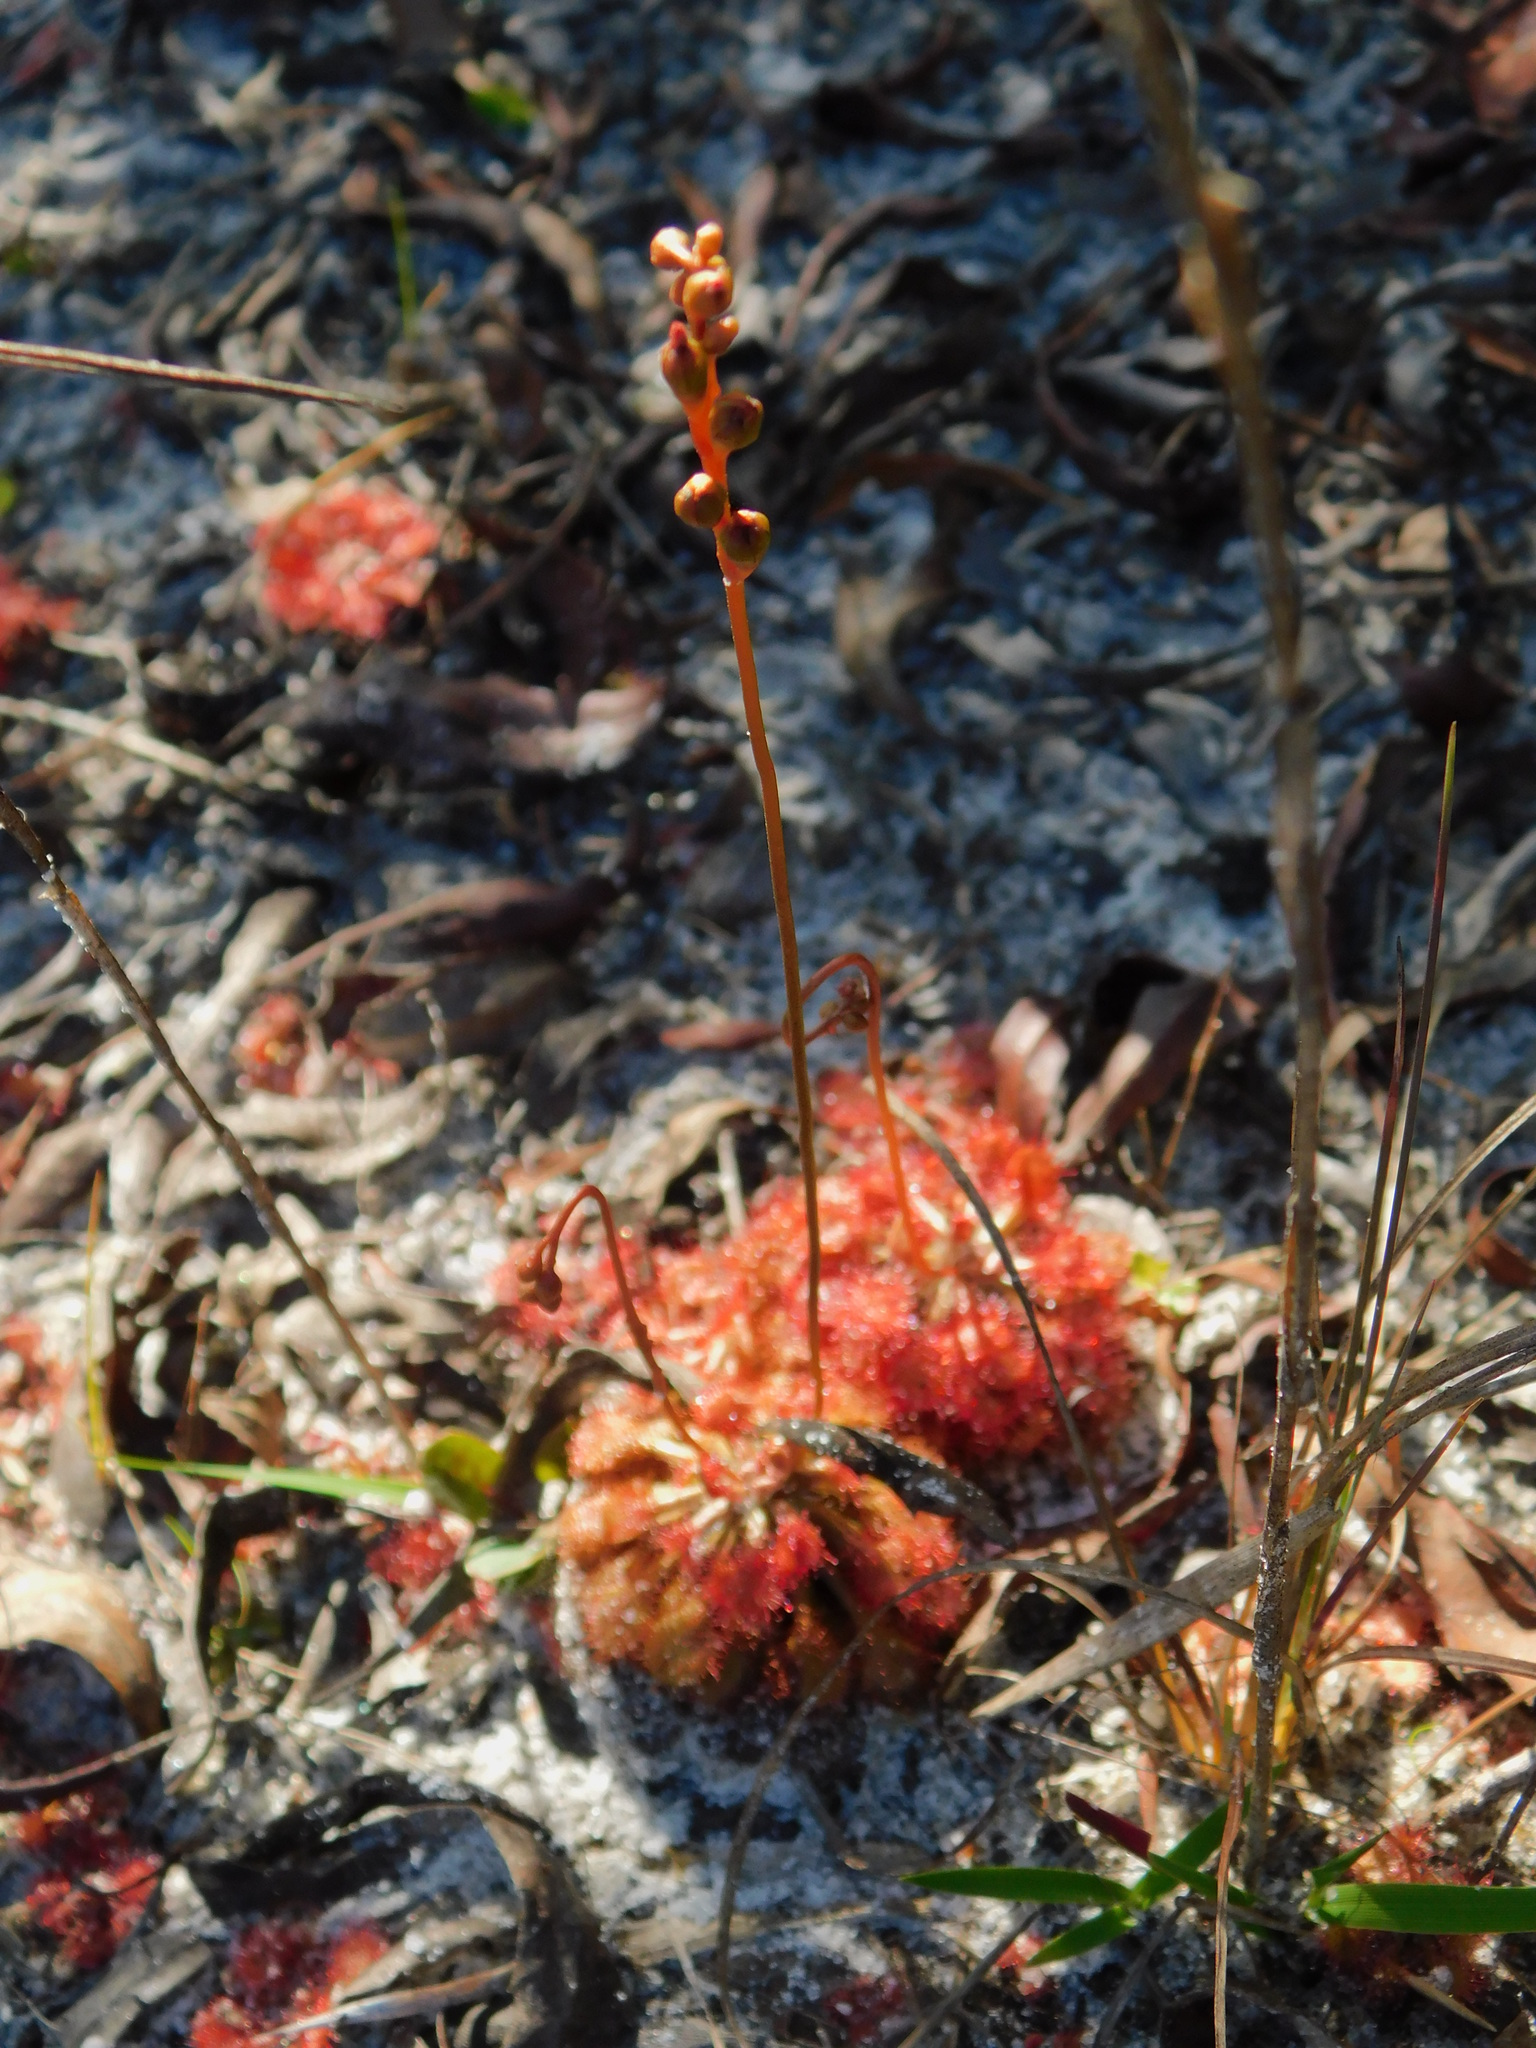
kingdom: Plantae
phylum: Tracheophyta
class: Magnoliopsida
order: Caryophyllales
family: Droseraceae
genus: Drosera
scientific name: Drosera capillaris
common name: Pink sundew
